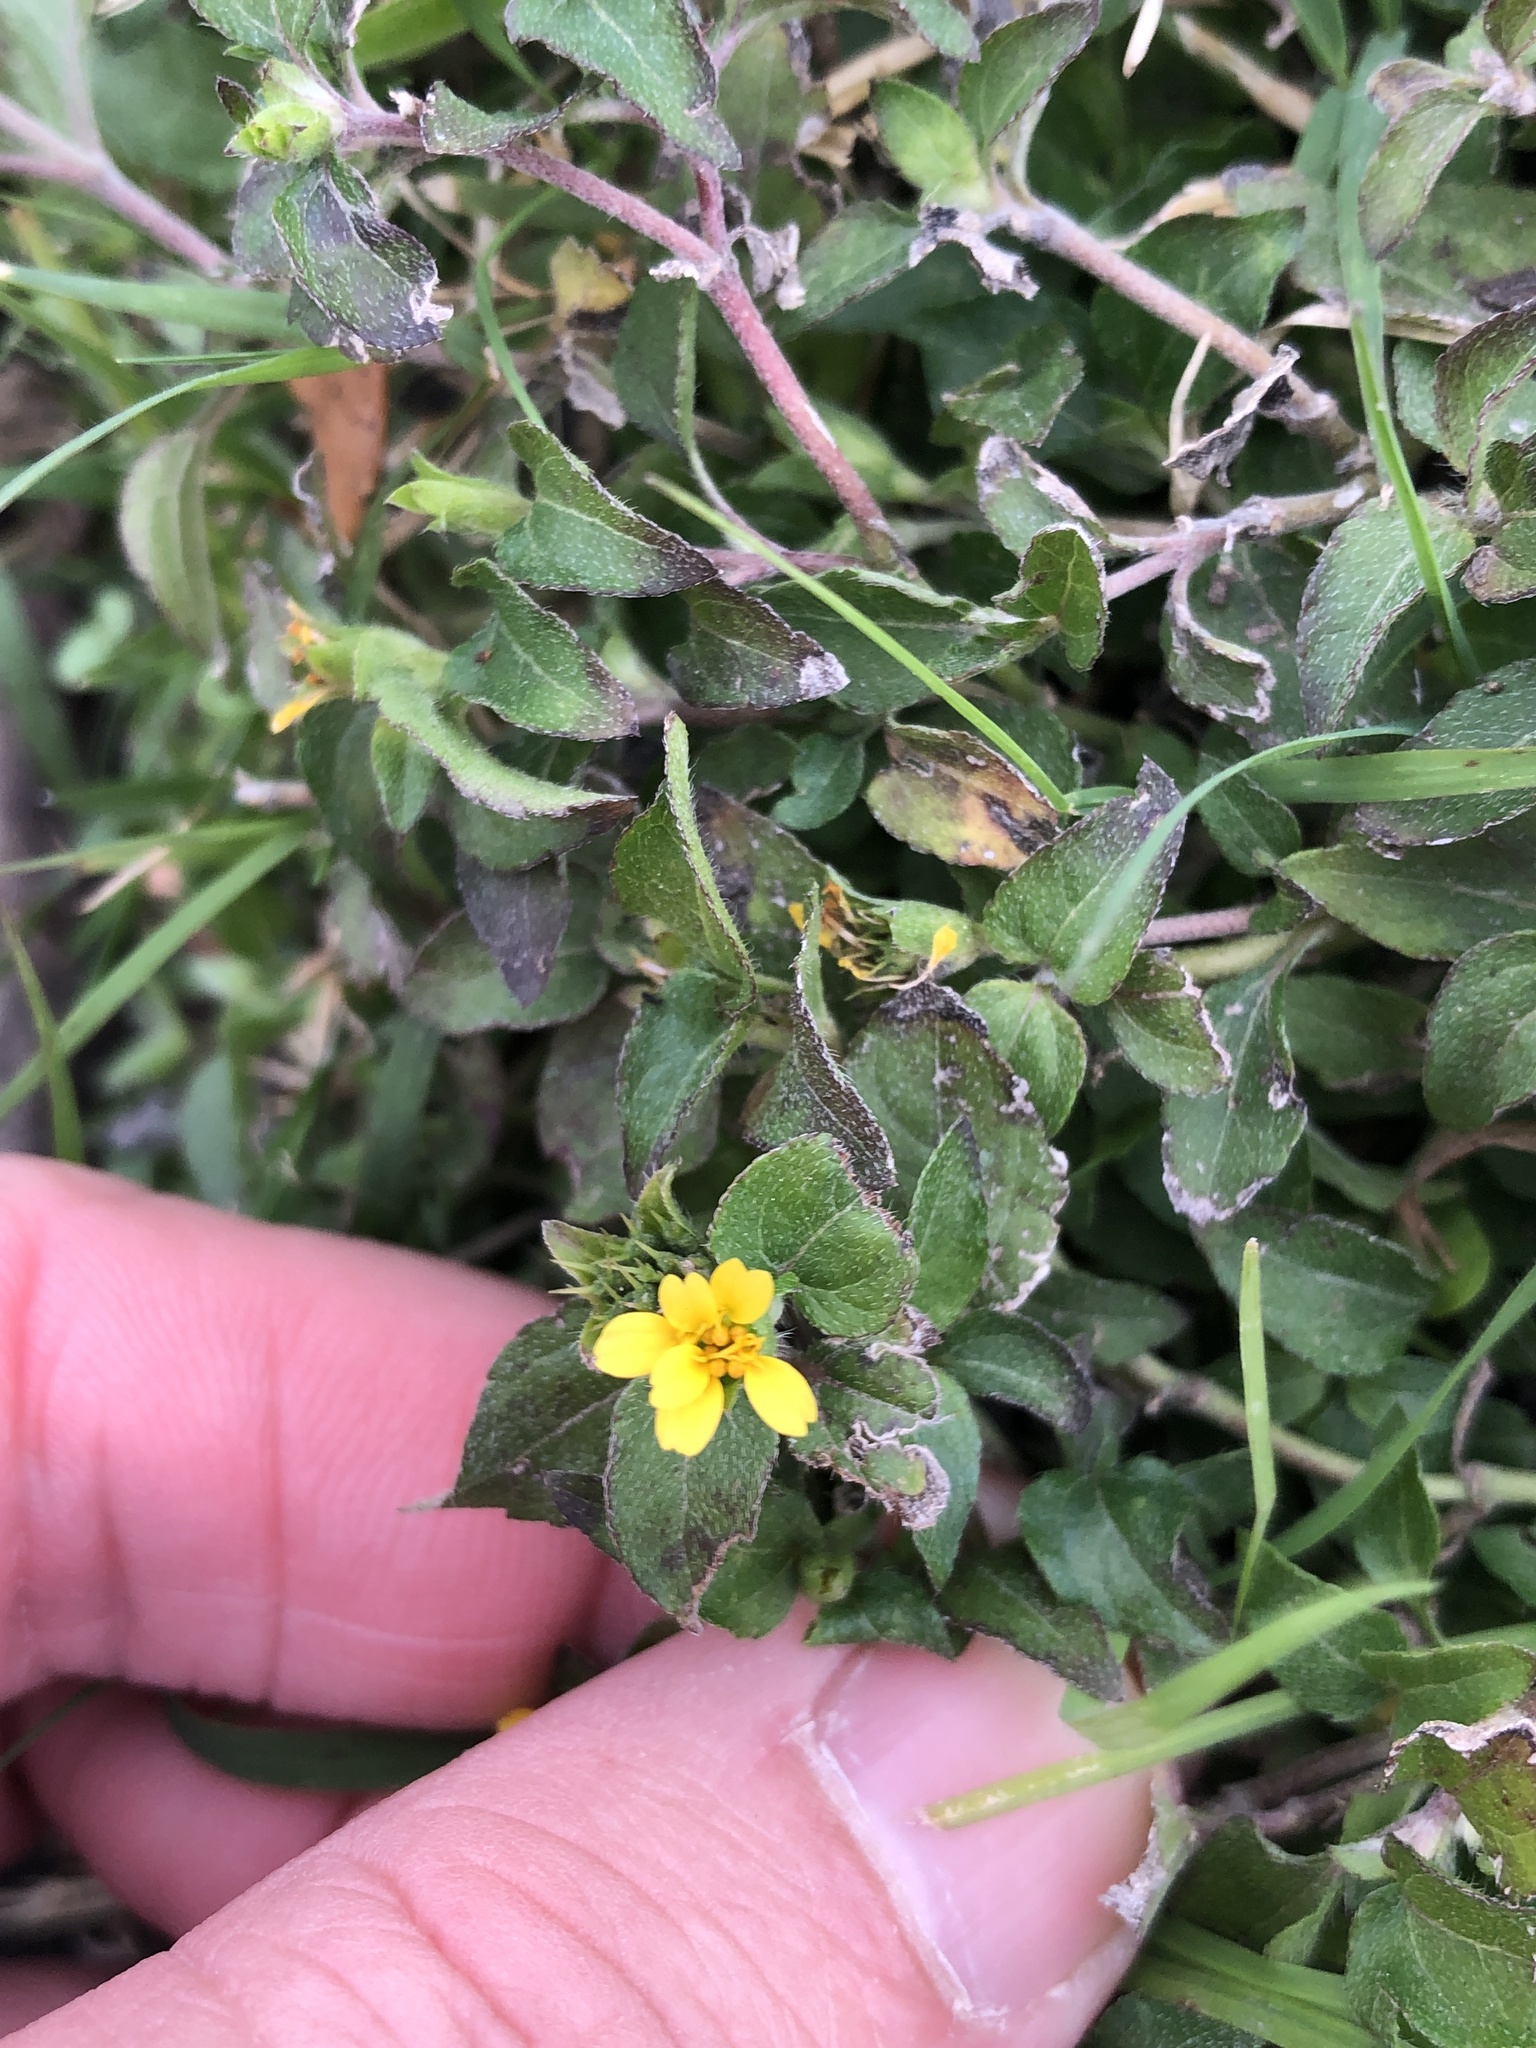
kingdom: Plantae
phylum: Tracheophyta
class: Magnoliopsida
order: Asterales
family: Asteraceae
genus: Calyptocarpus
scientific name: Calyptocarpus vialis
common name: Straggler daisy
